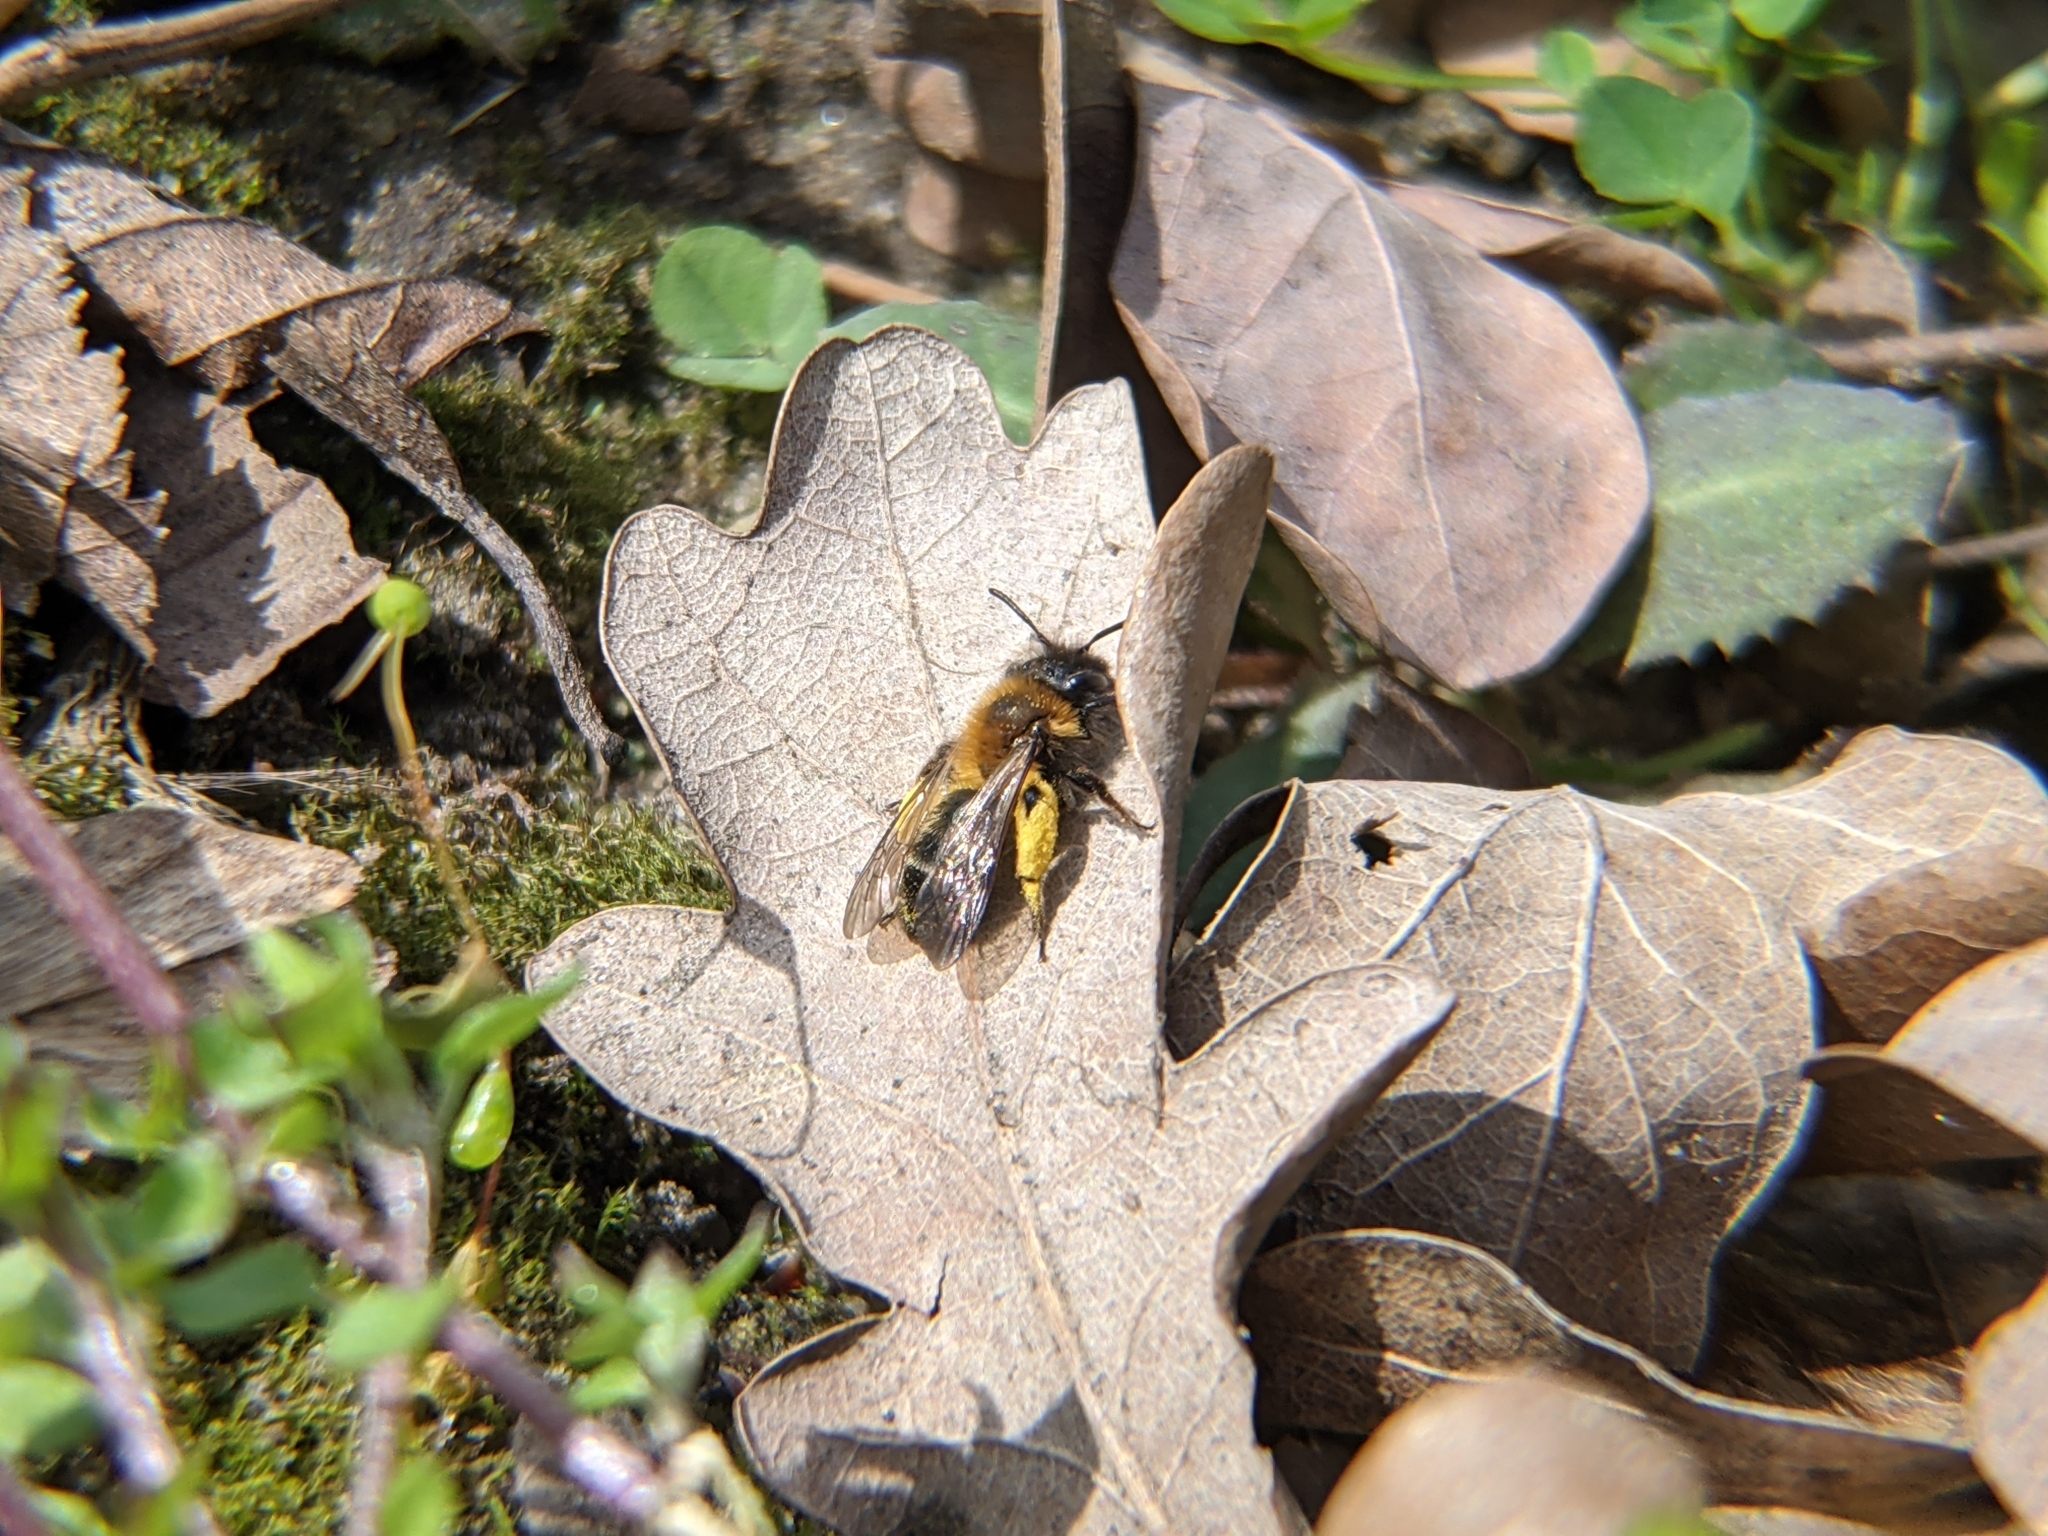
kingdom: Animalia
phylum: Arthropoda
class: Insecta
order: Hymenoptera
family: Andrenidae
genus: Andrena
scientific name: Andrena bicolor
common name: Gwynne's mining bee
